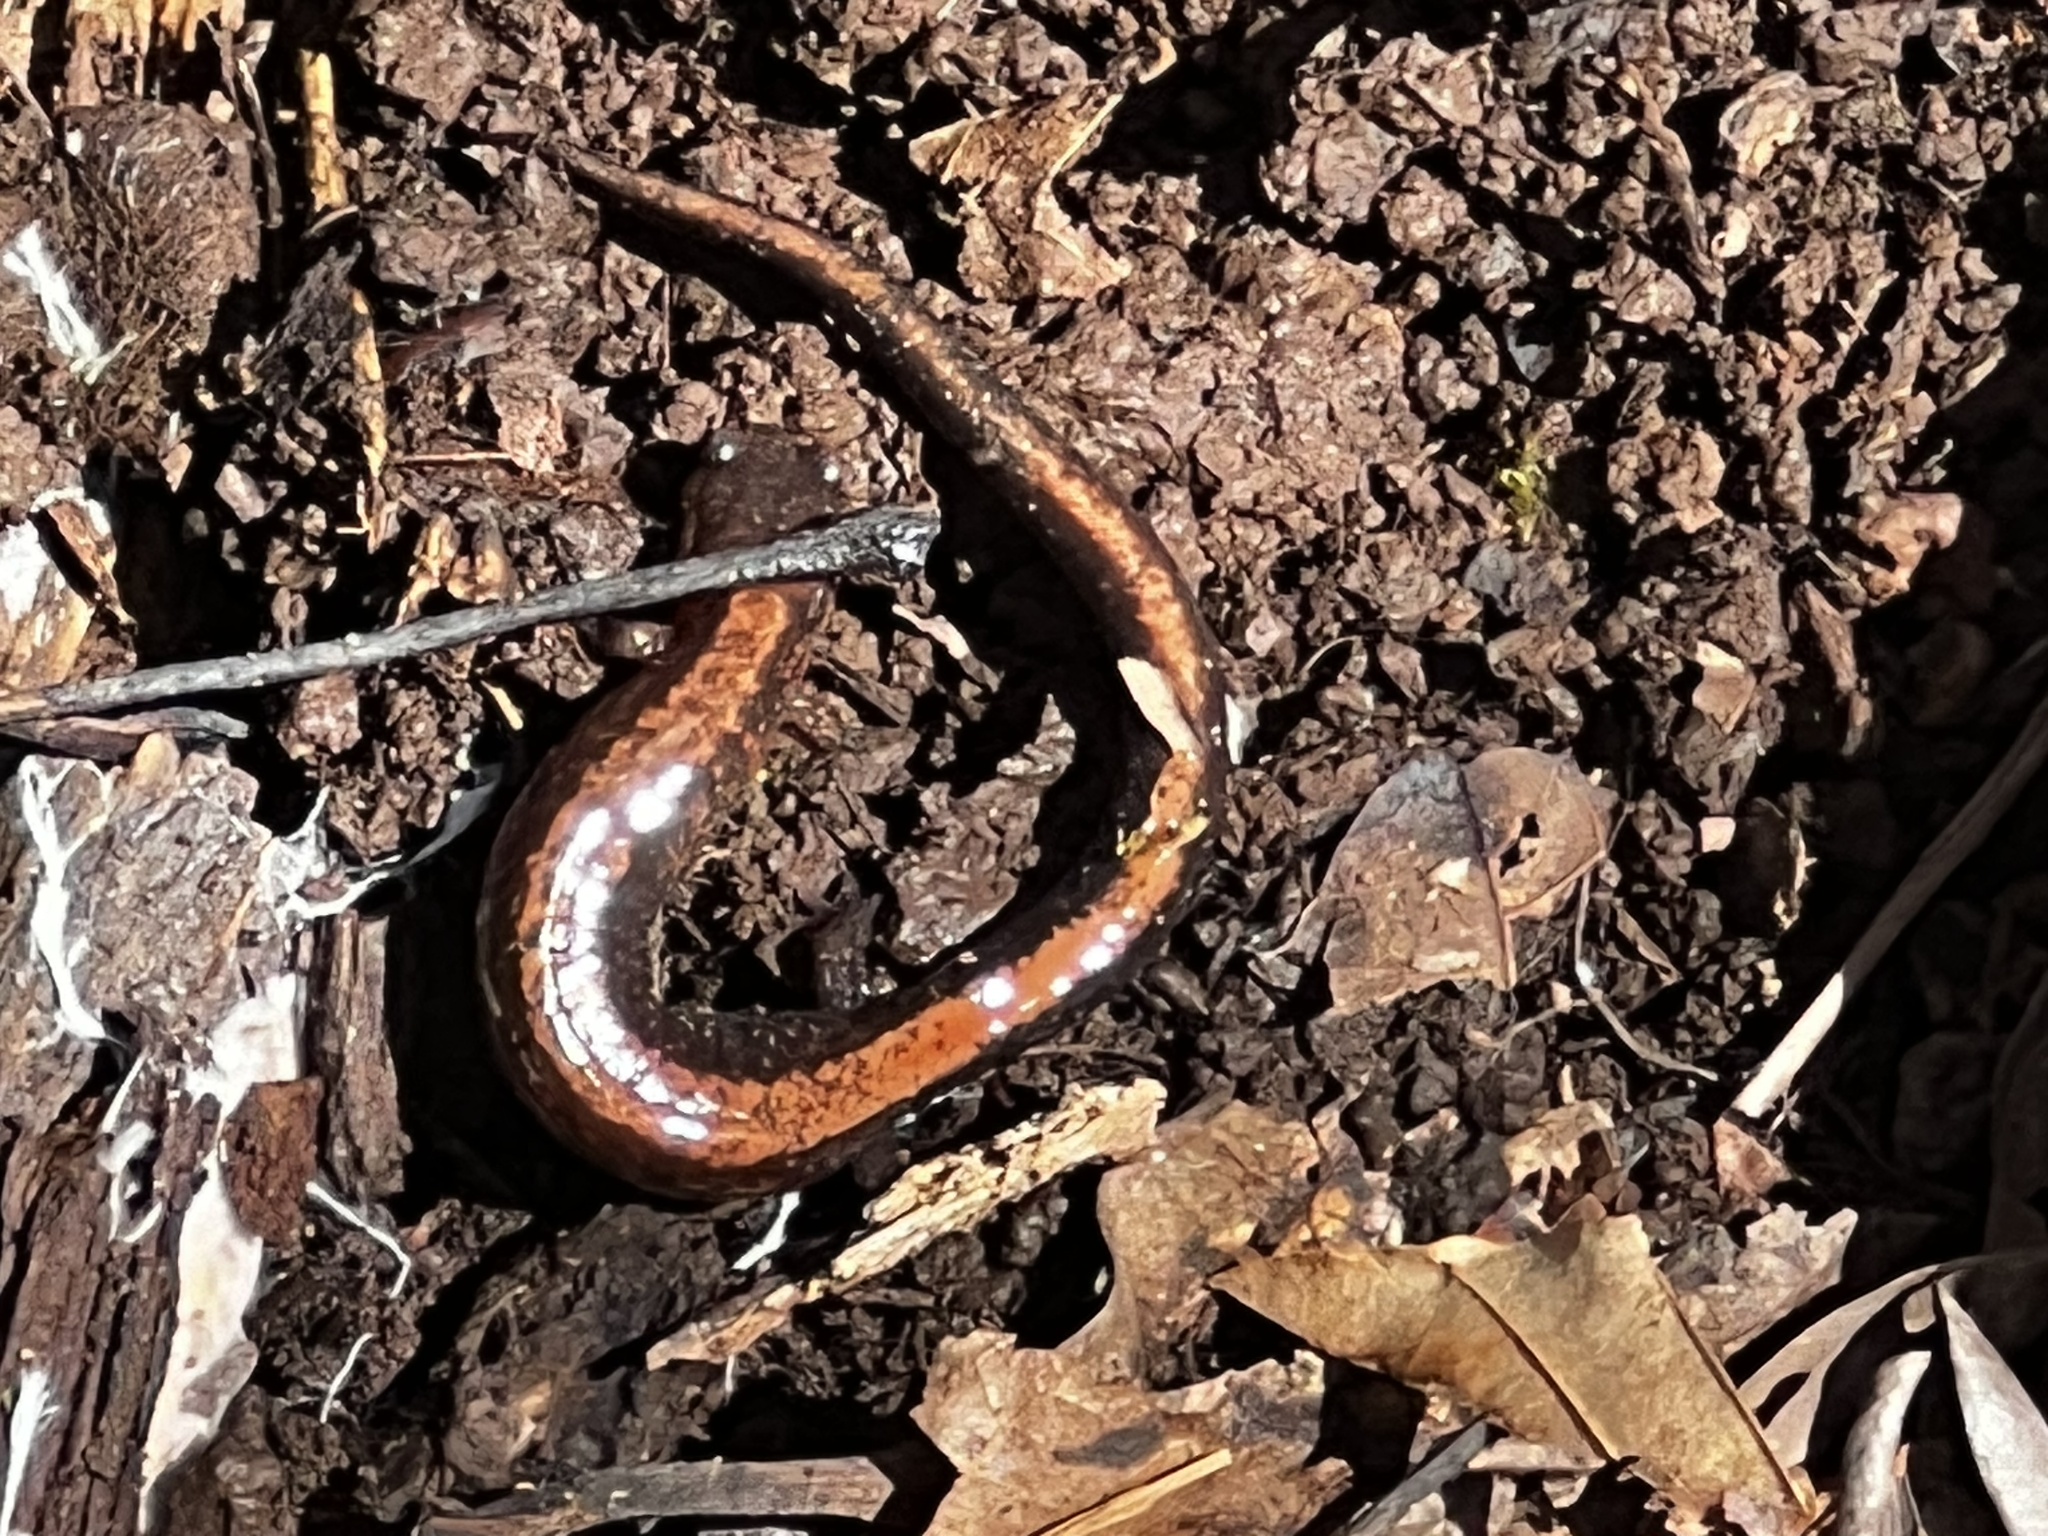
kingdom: Animalia
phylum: Chordata
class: Amphibia
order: Caudata
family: Plethodontidae
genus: Plethodon
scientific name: Plethodon cinereus
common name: Redback salamander
